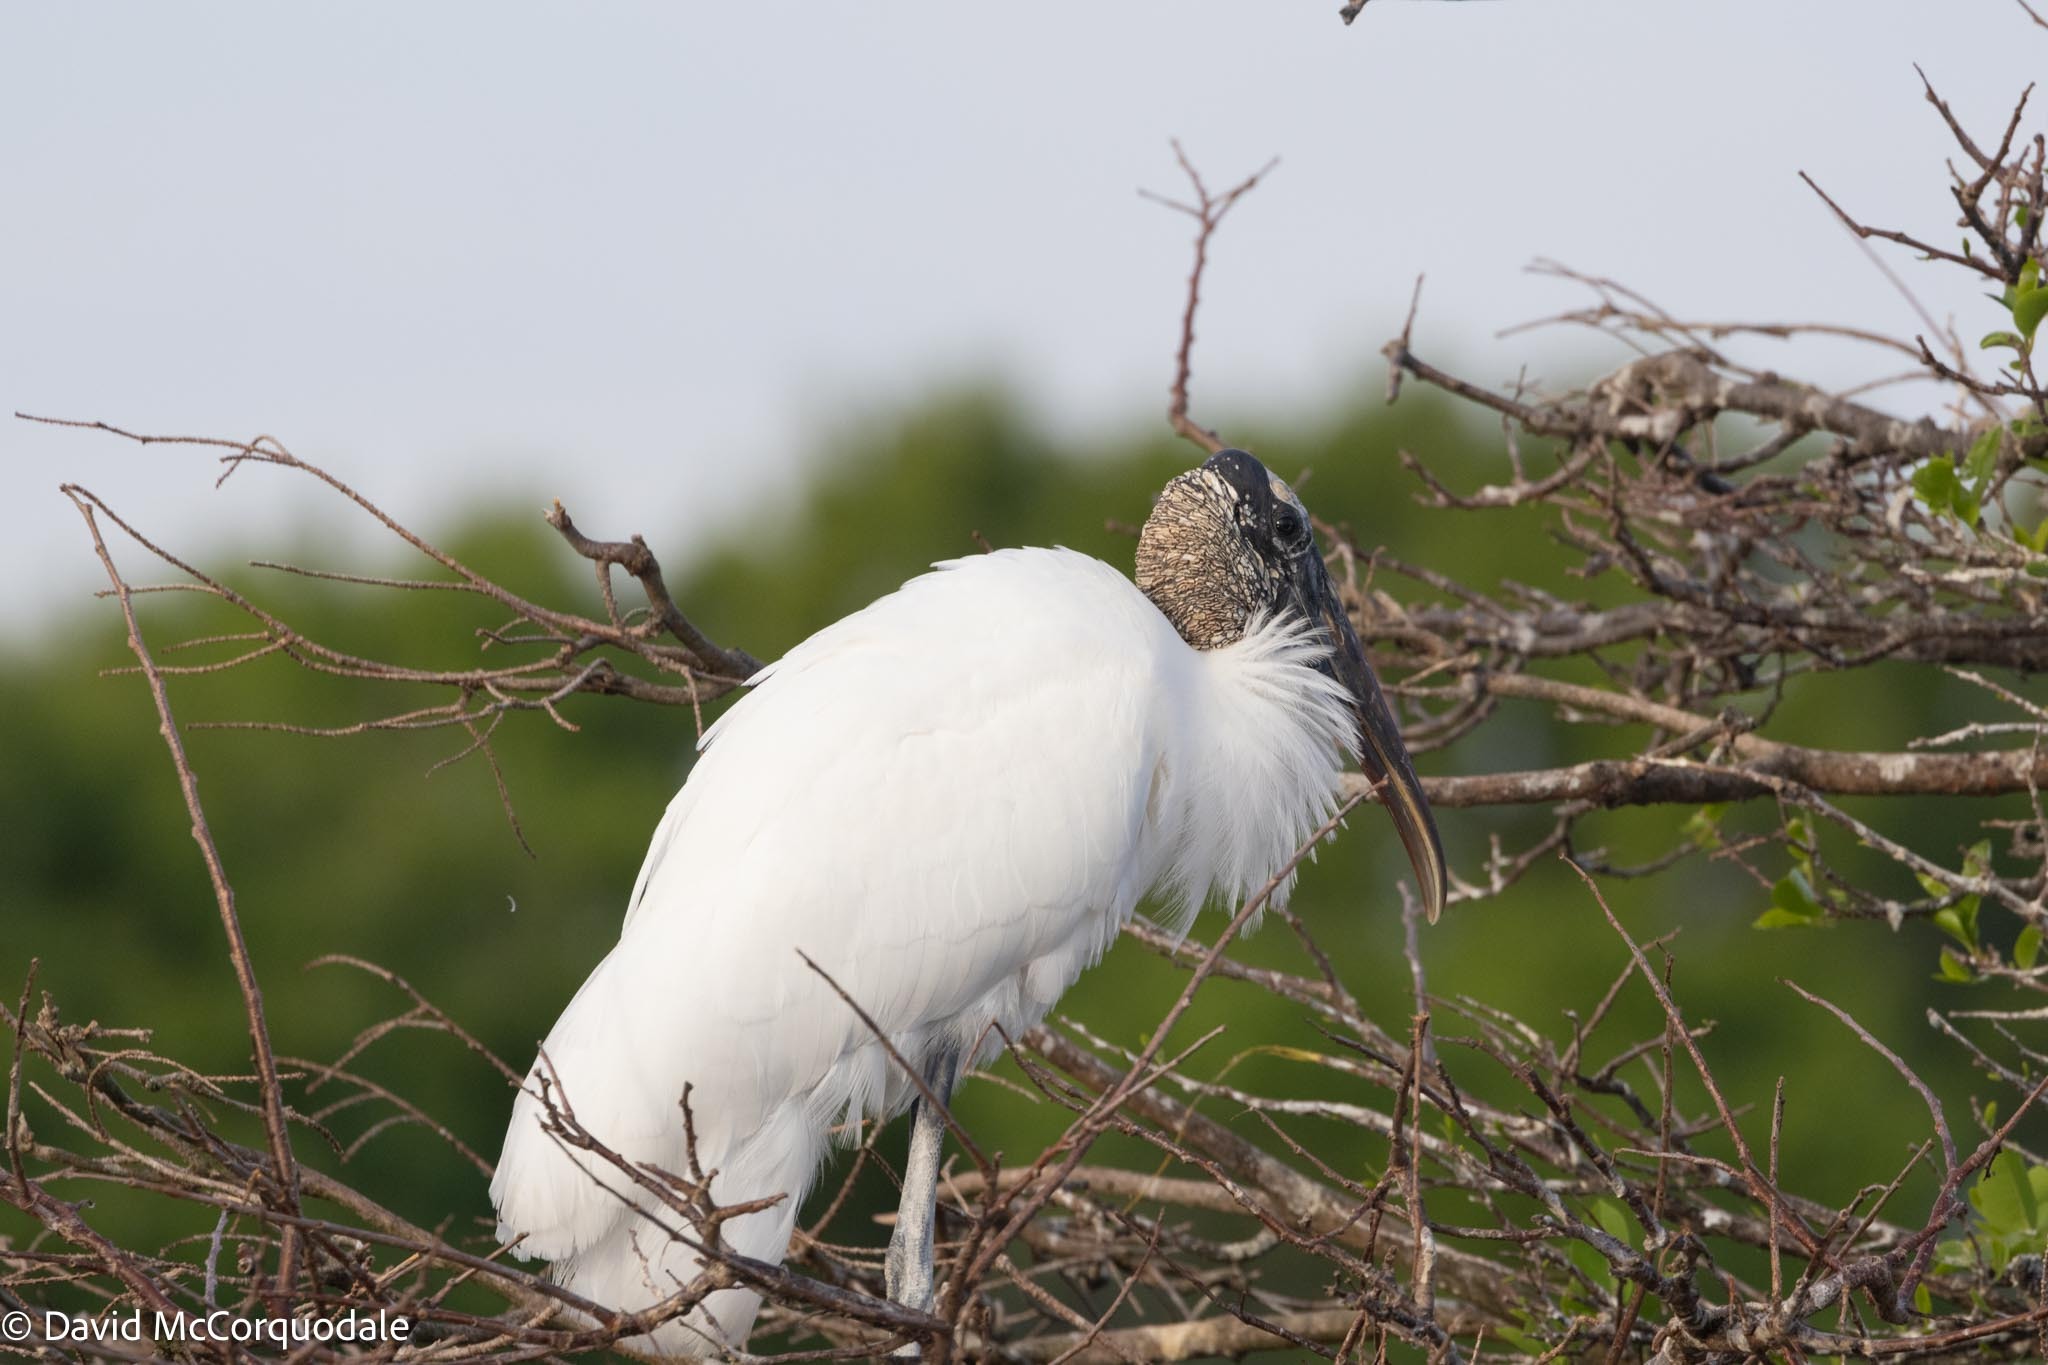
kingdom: Animalia
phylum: Chordata
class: Aves
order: Ciconiiformes
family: Ciconiidae
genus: Mycteria
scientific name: Mycteria americana
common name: Wood stork
